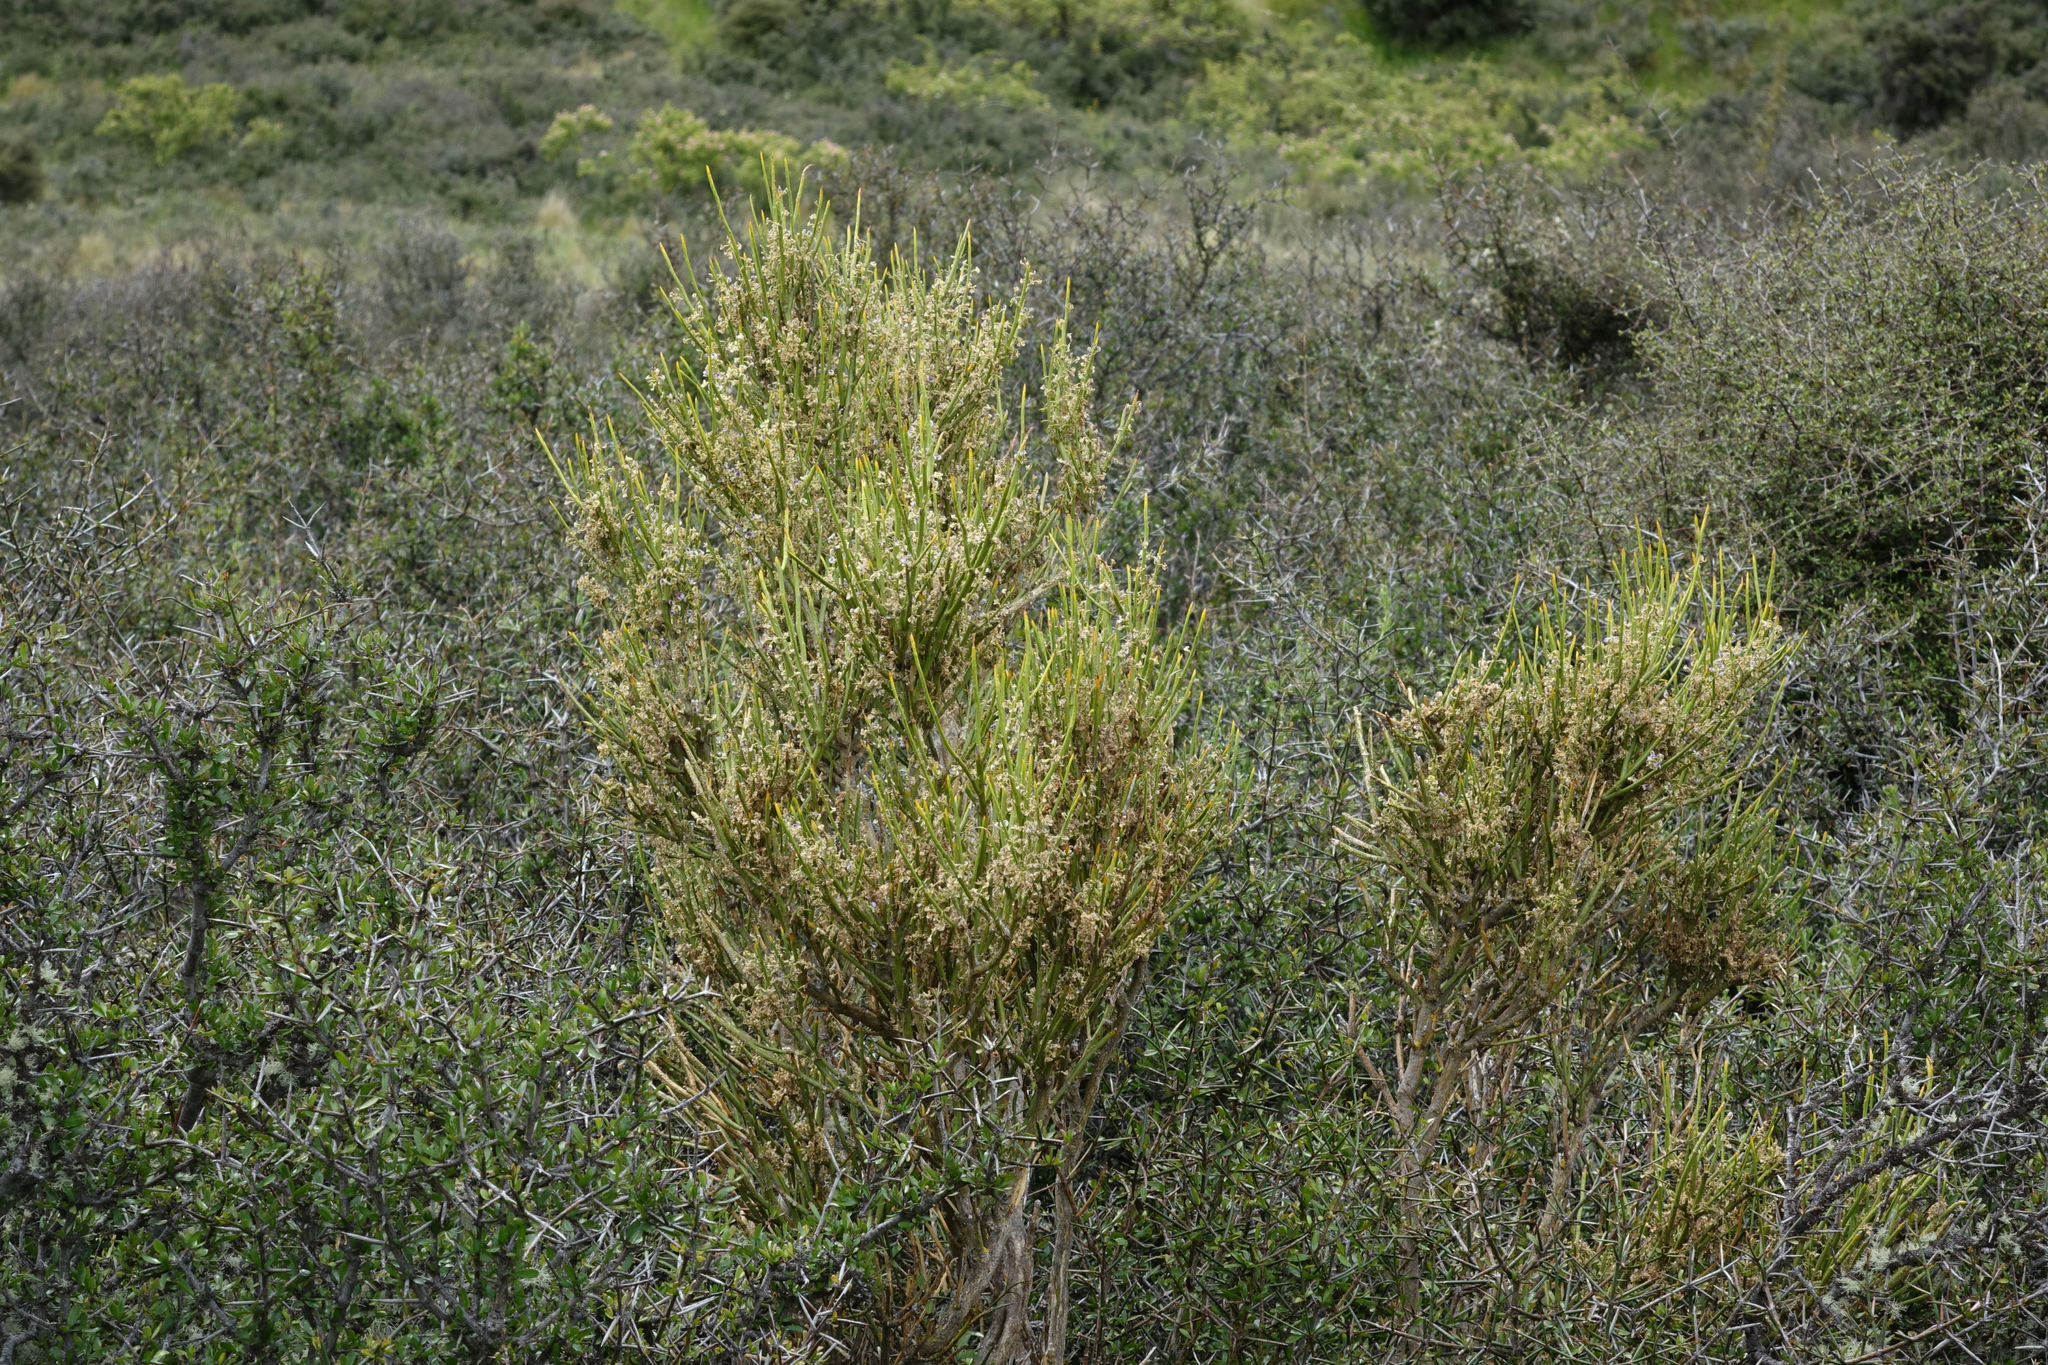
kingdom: Plantae
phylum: Tracheophyta
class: Magnoliopsida
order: Fabales
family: Fabaceae
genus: Carmichaelia
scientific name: Carmichaelia petriei
